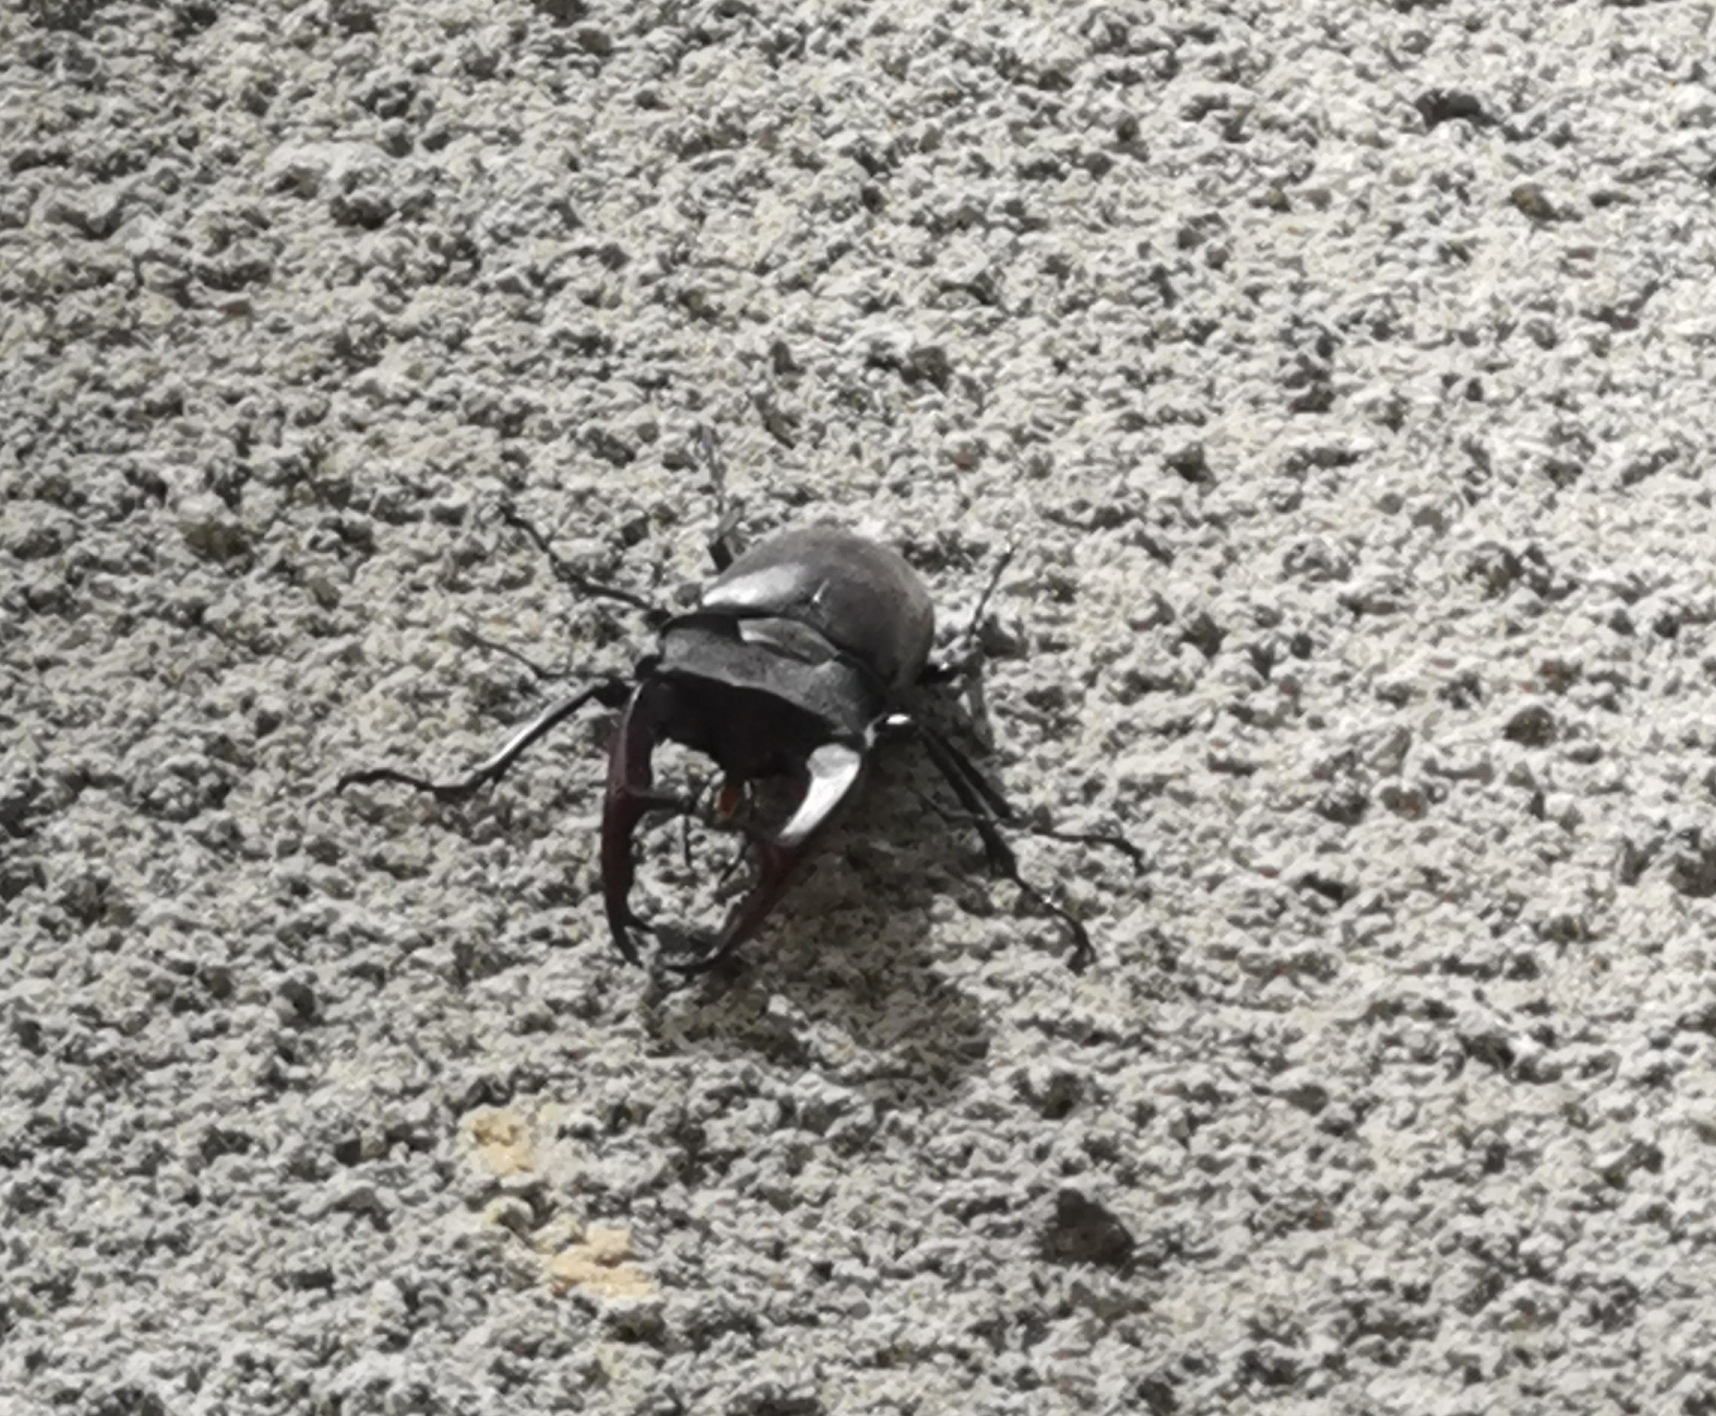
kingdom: Animalia
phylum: Arthropoda
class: Insecta
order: Coleoptera
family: Lucanidae
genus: Lucanus
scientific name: Lucanus cervus
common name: Stag beetle
